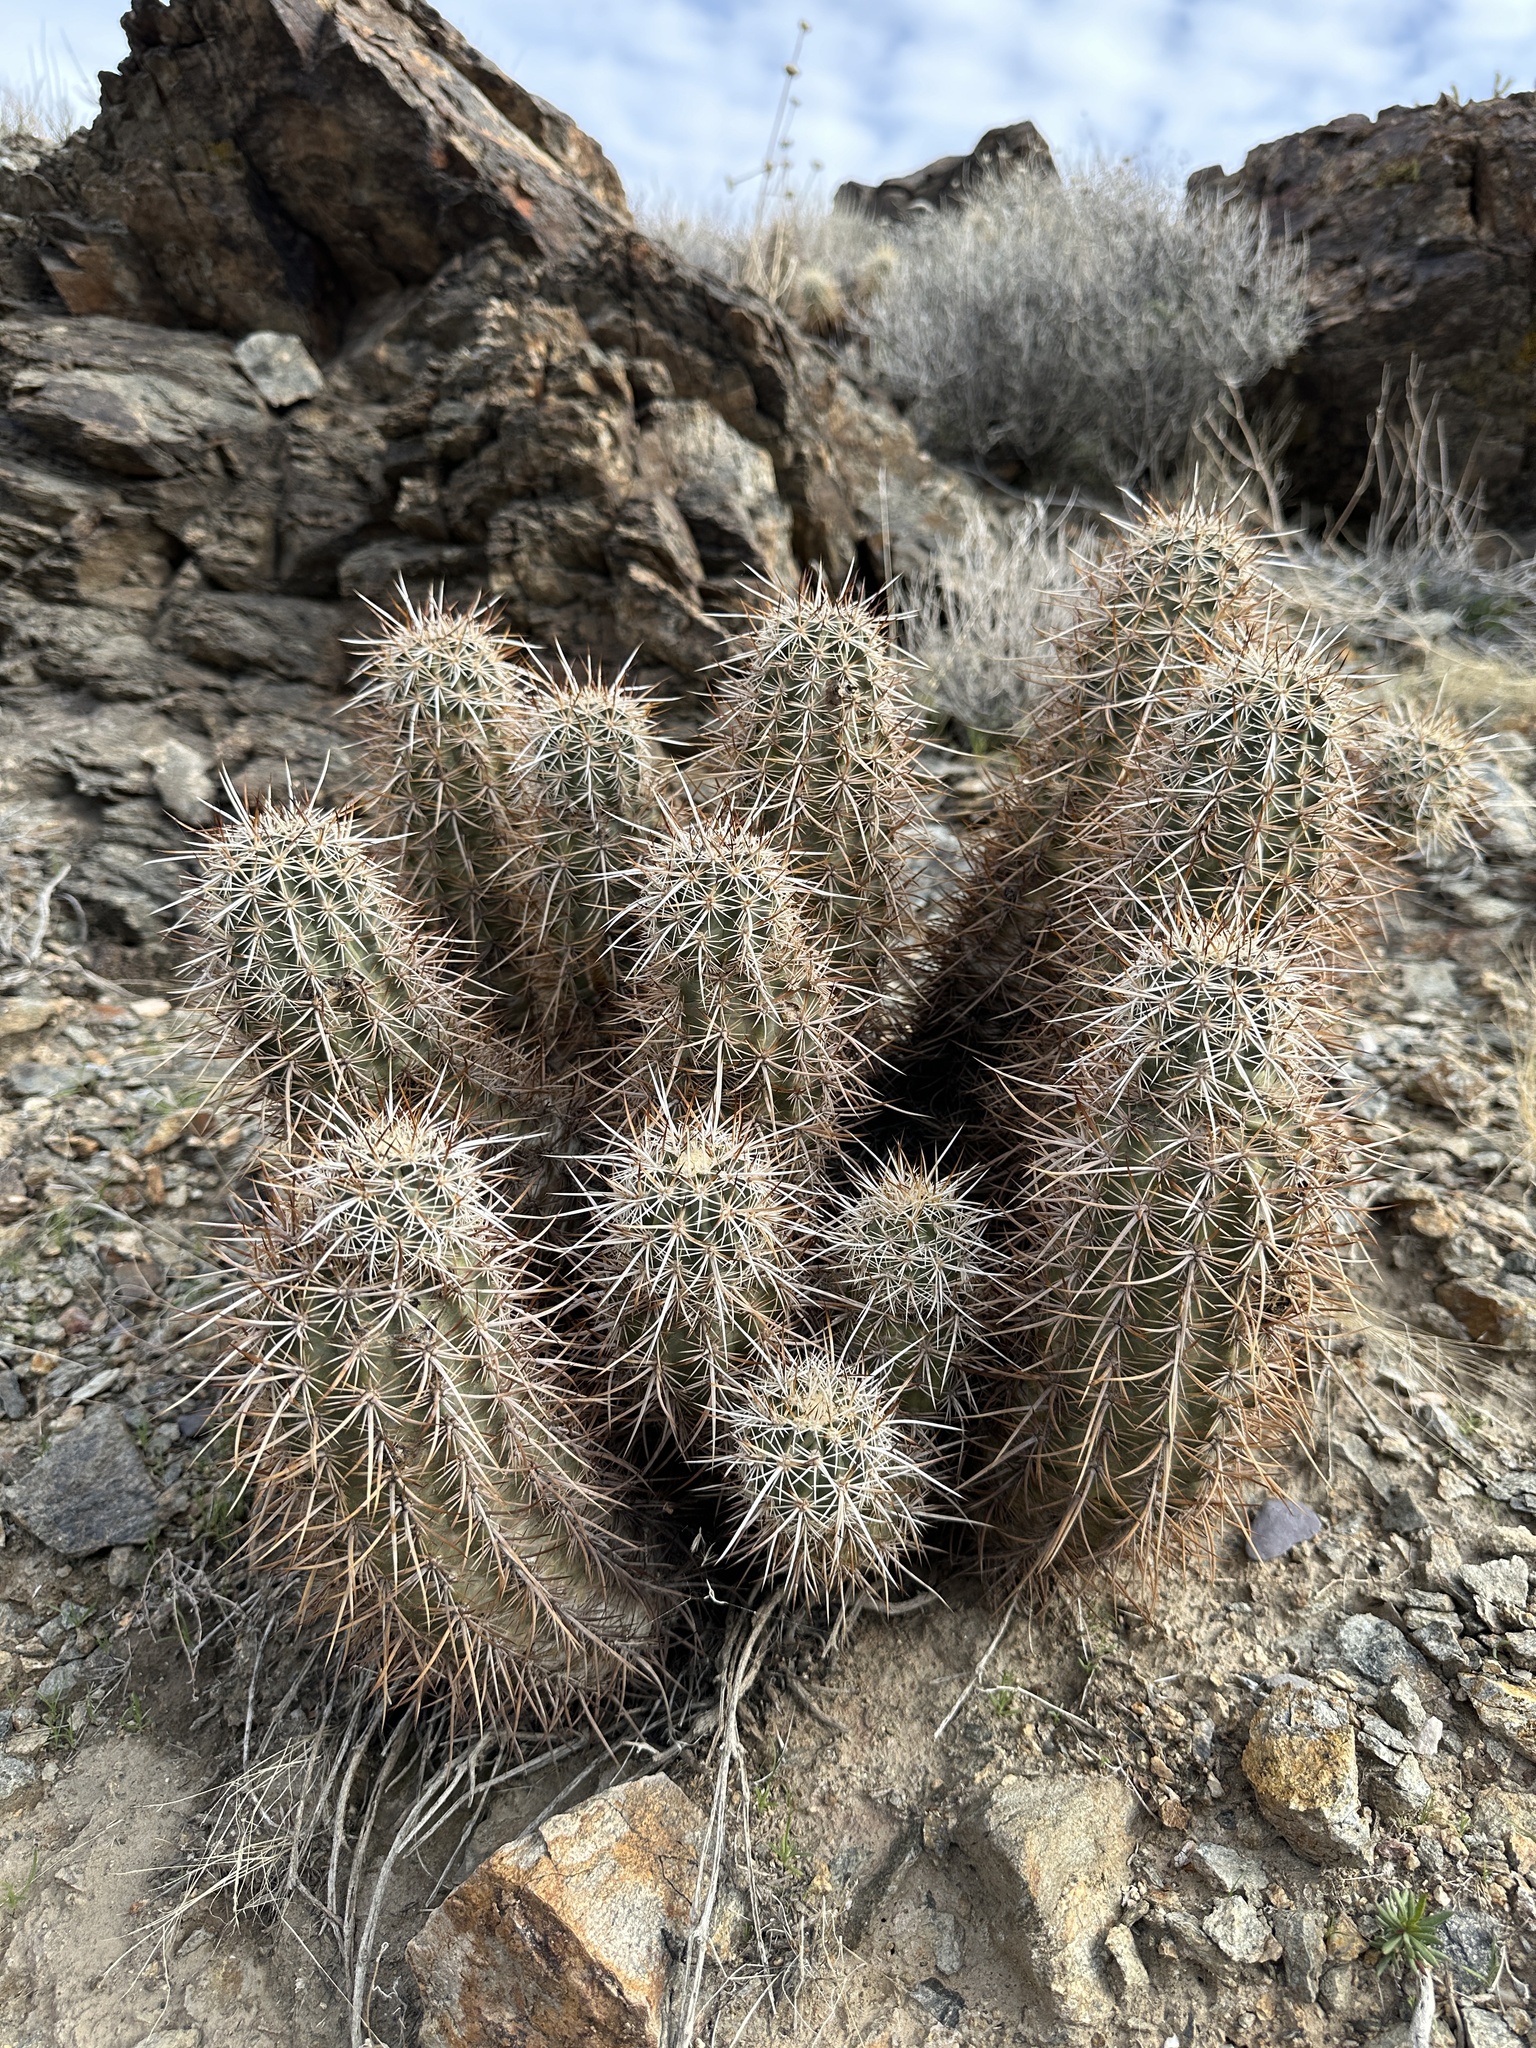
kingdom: Plantae
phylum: Tracheophyta
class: Magnoliopsida
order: Caryophyllales
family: Cactaceae
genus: Echinocereus
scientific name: Echinocereus engelmannii
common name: Engelmann's hedgehog cactus
